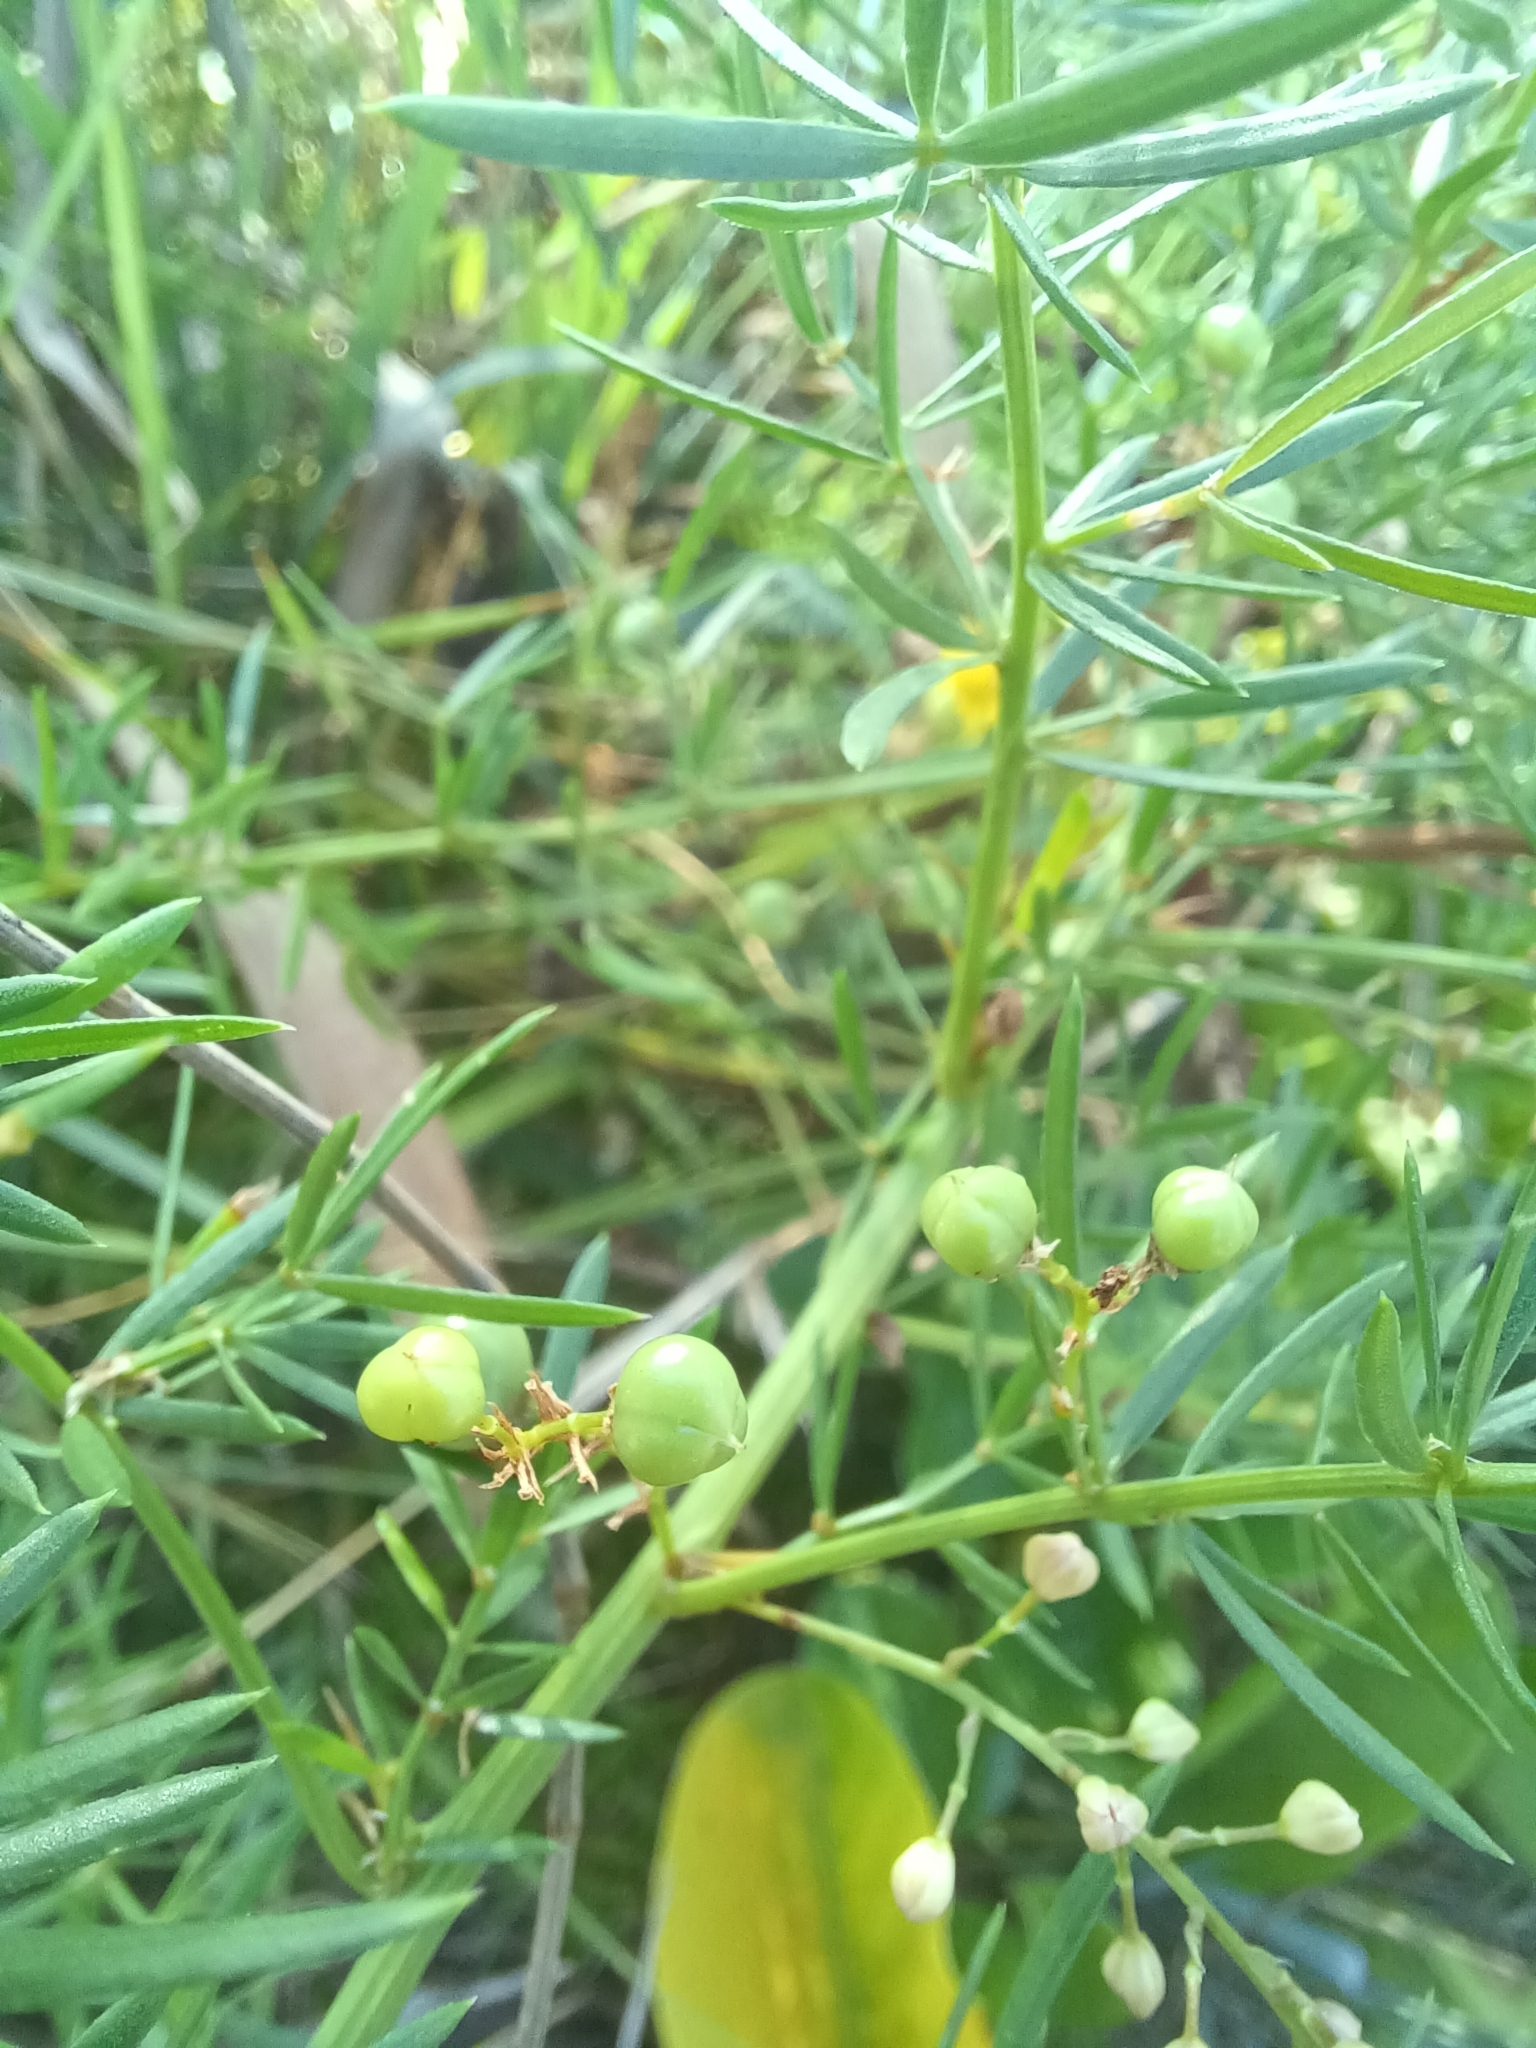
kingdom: Plantae
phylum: Tracheophyta
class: Liliopsida
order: Asparagales
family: Asparagaceae
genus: Asparagus
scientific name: Asparagus aethiopicus
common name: Sprenger's asparagus fern
